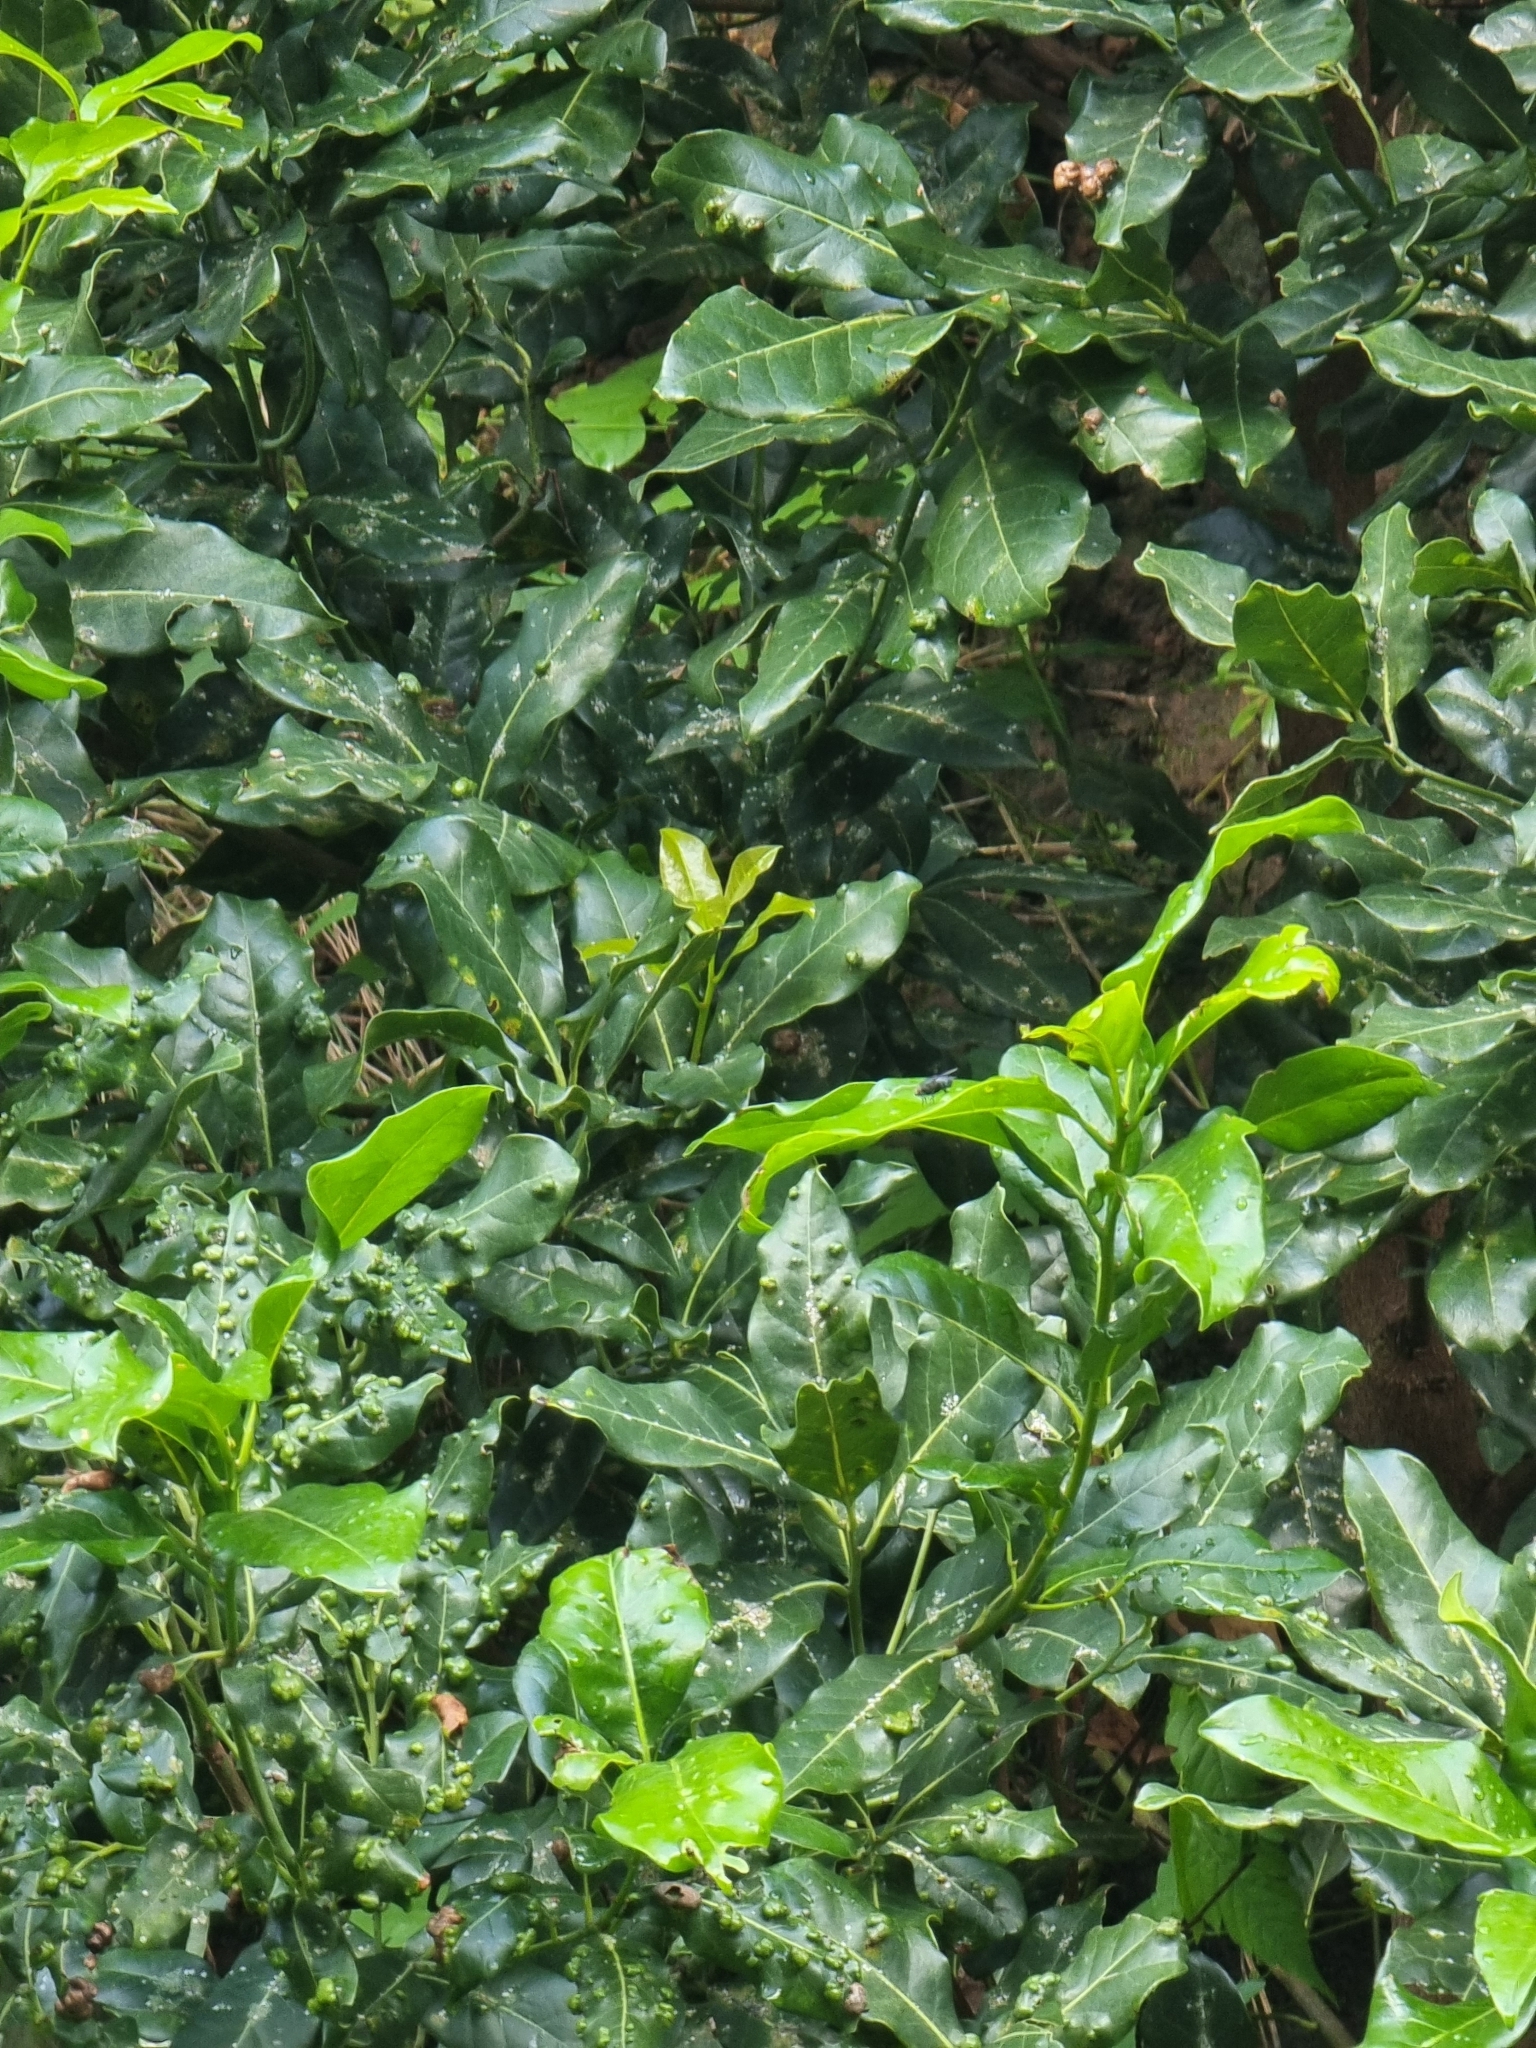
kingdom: Plantae
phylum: Tracheophyta
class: Magnoliopsida
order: Laurales
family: Lauraceae
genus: Apollonias
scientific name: Apollonias barbujana
